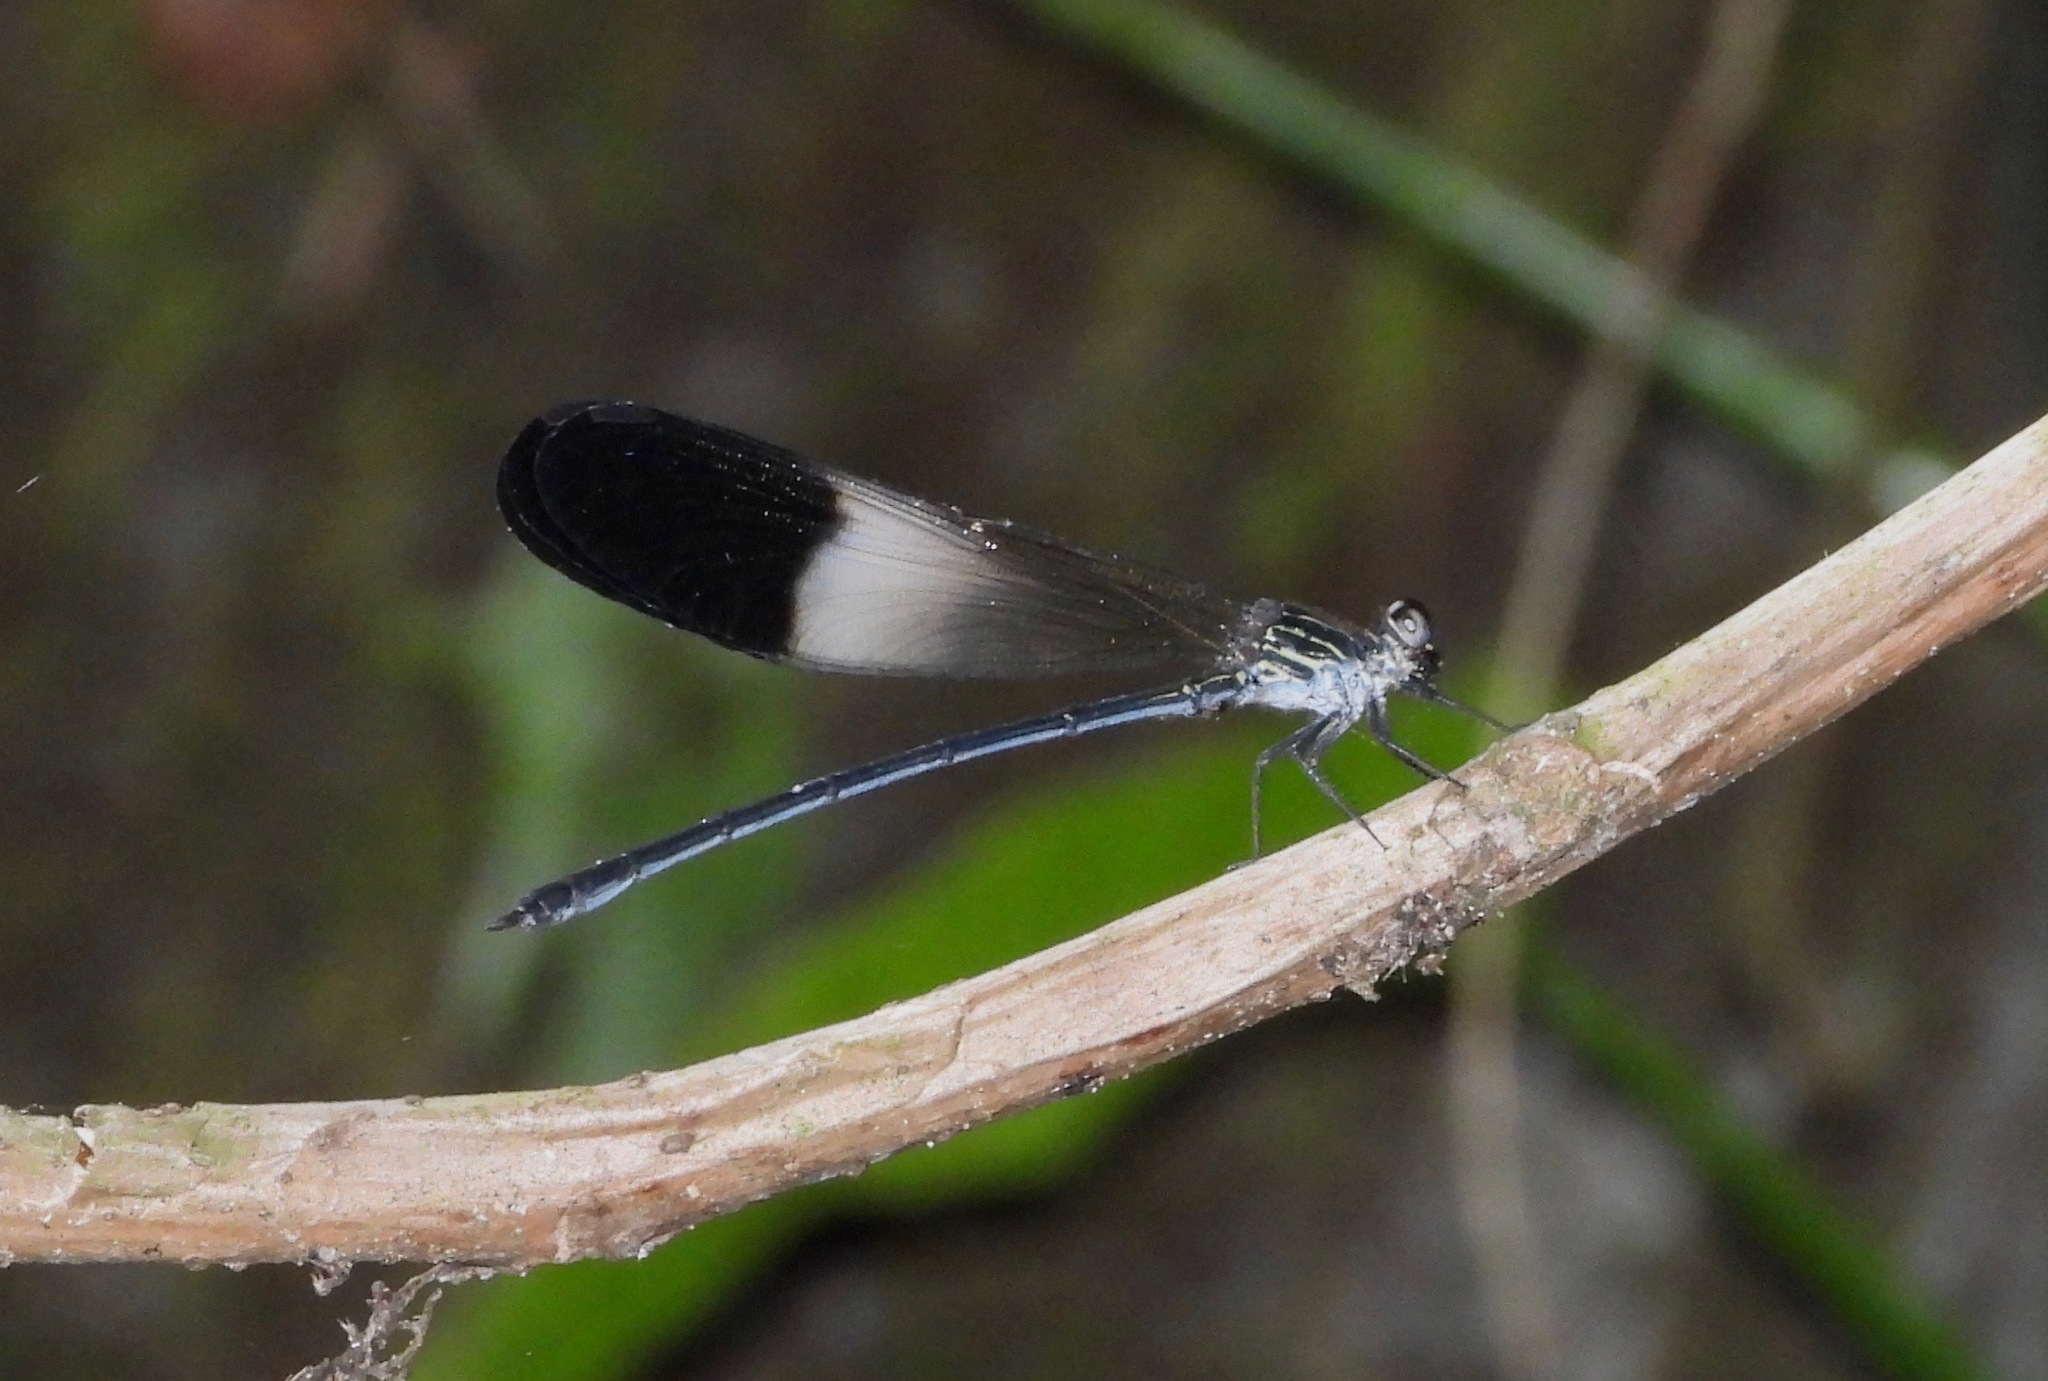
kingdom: Animalia
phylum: Arthropoda
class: Insecta
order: Odonata
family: Polythoridae
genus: Polythore
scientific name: Polythore procera
